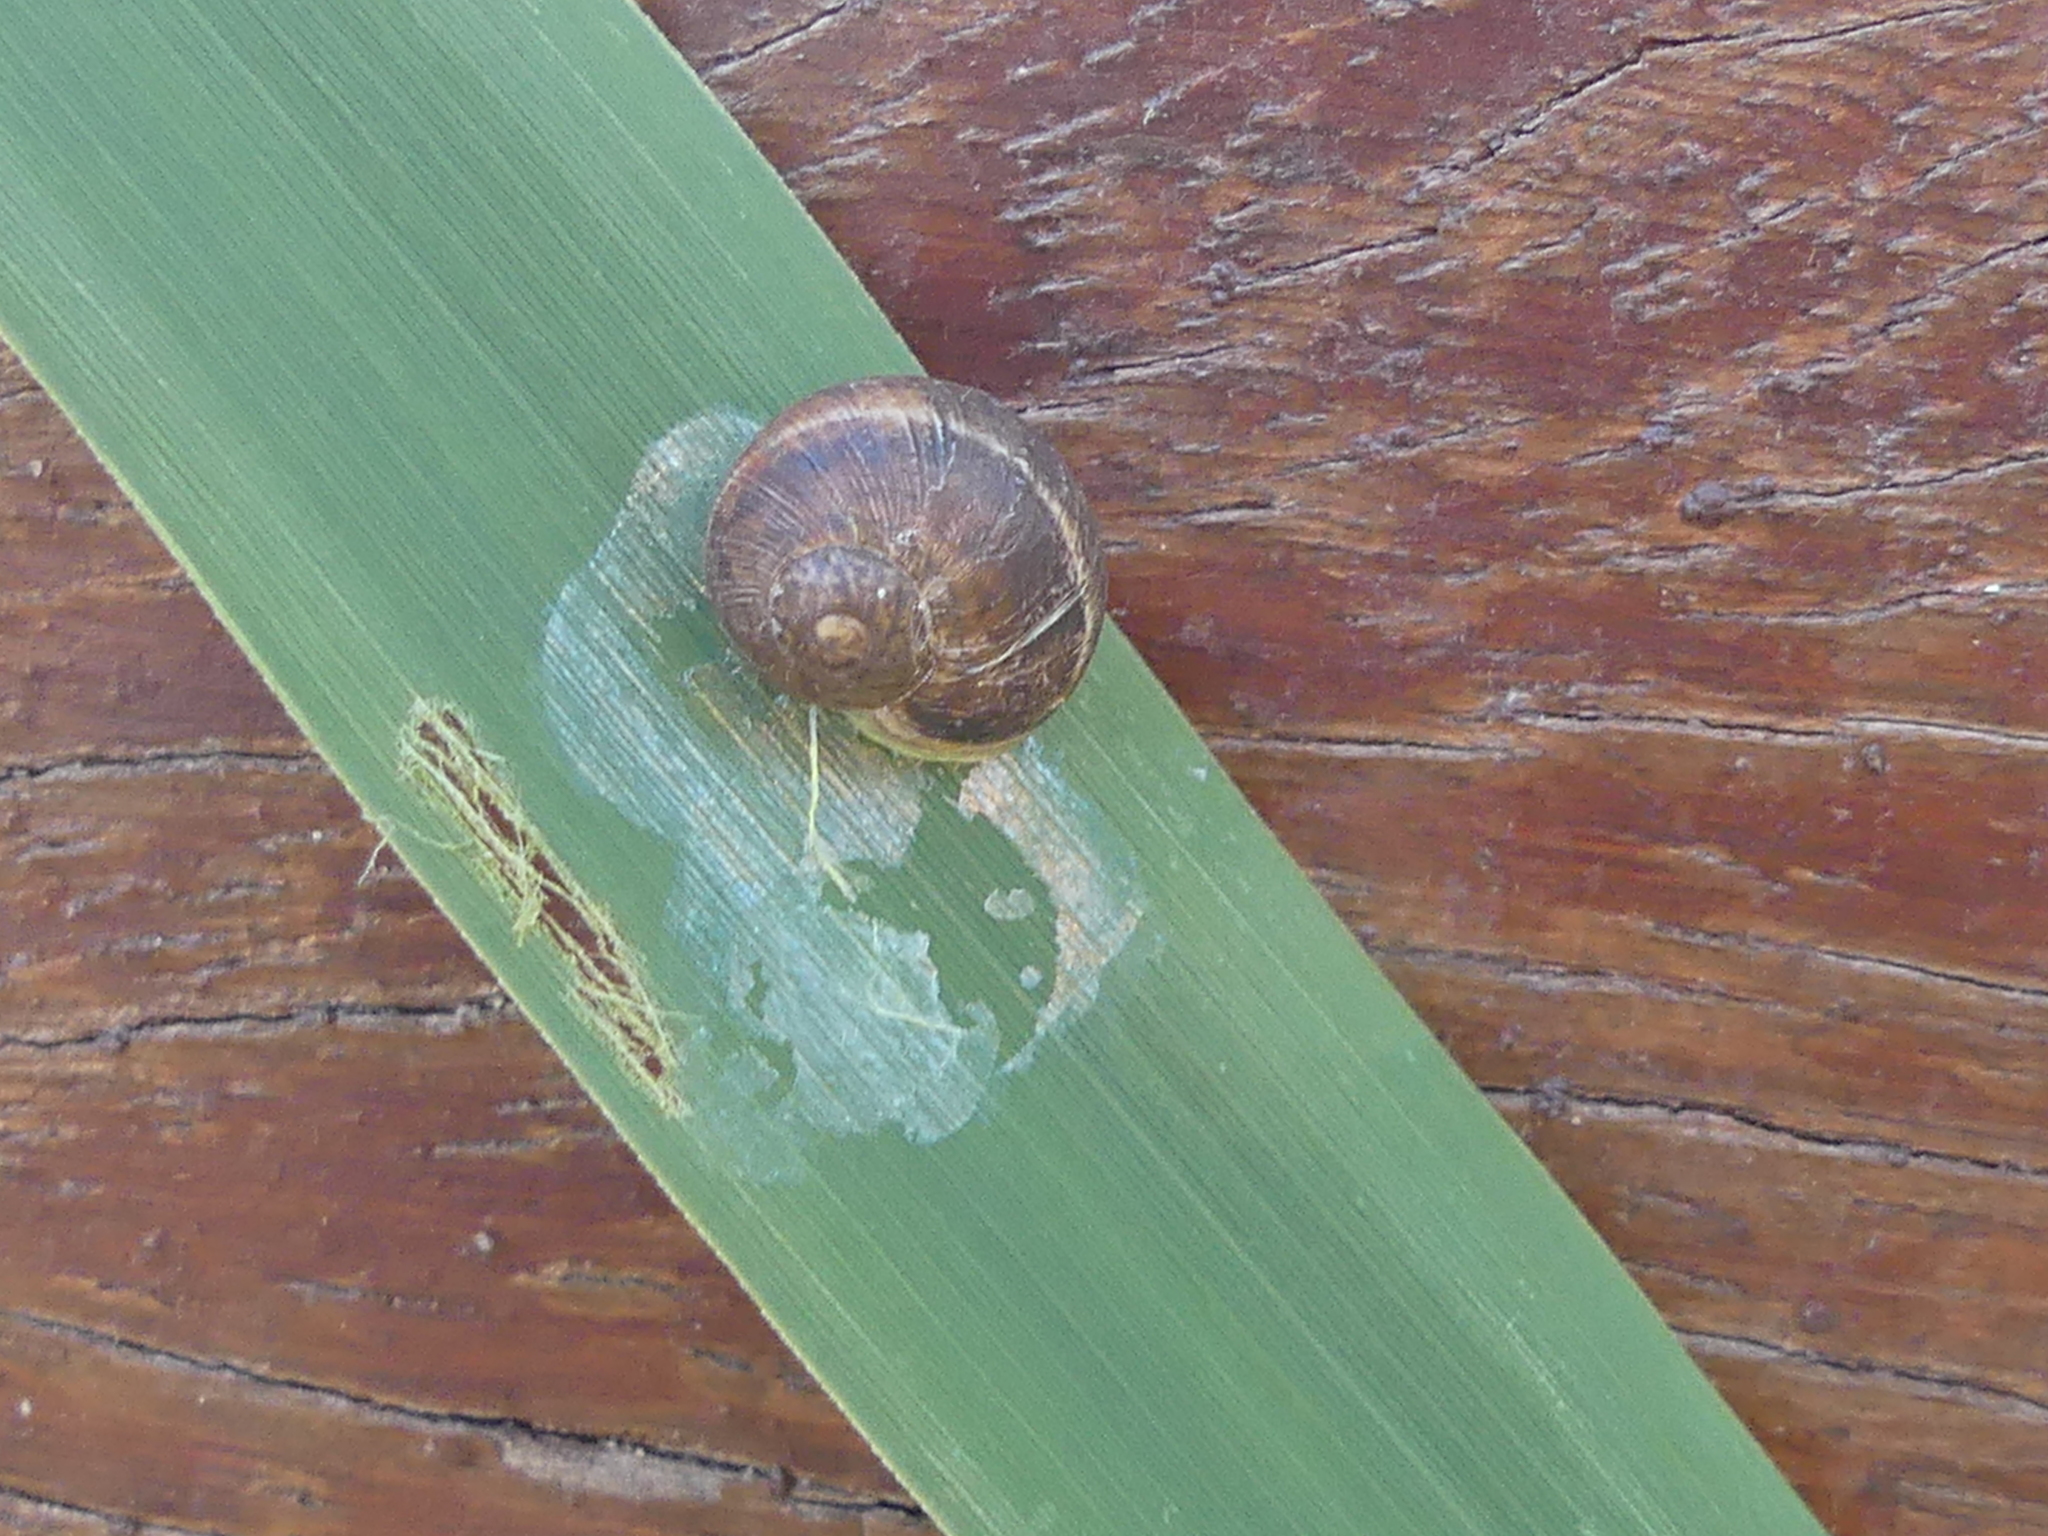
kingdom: Animalia
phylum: Mollusca
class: Gastropoda
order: Stylommatophora
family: Helicidae
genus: Cornu
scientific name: Cornu aspersum
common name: Brown garden snail
